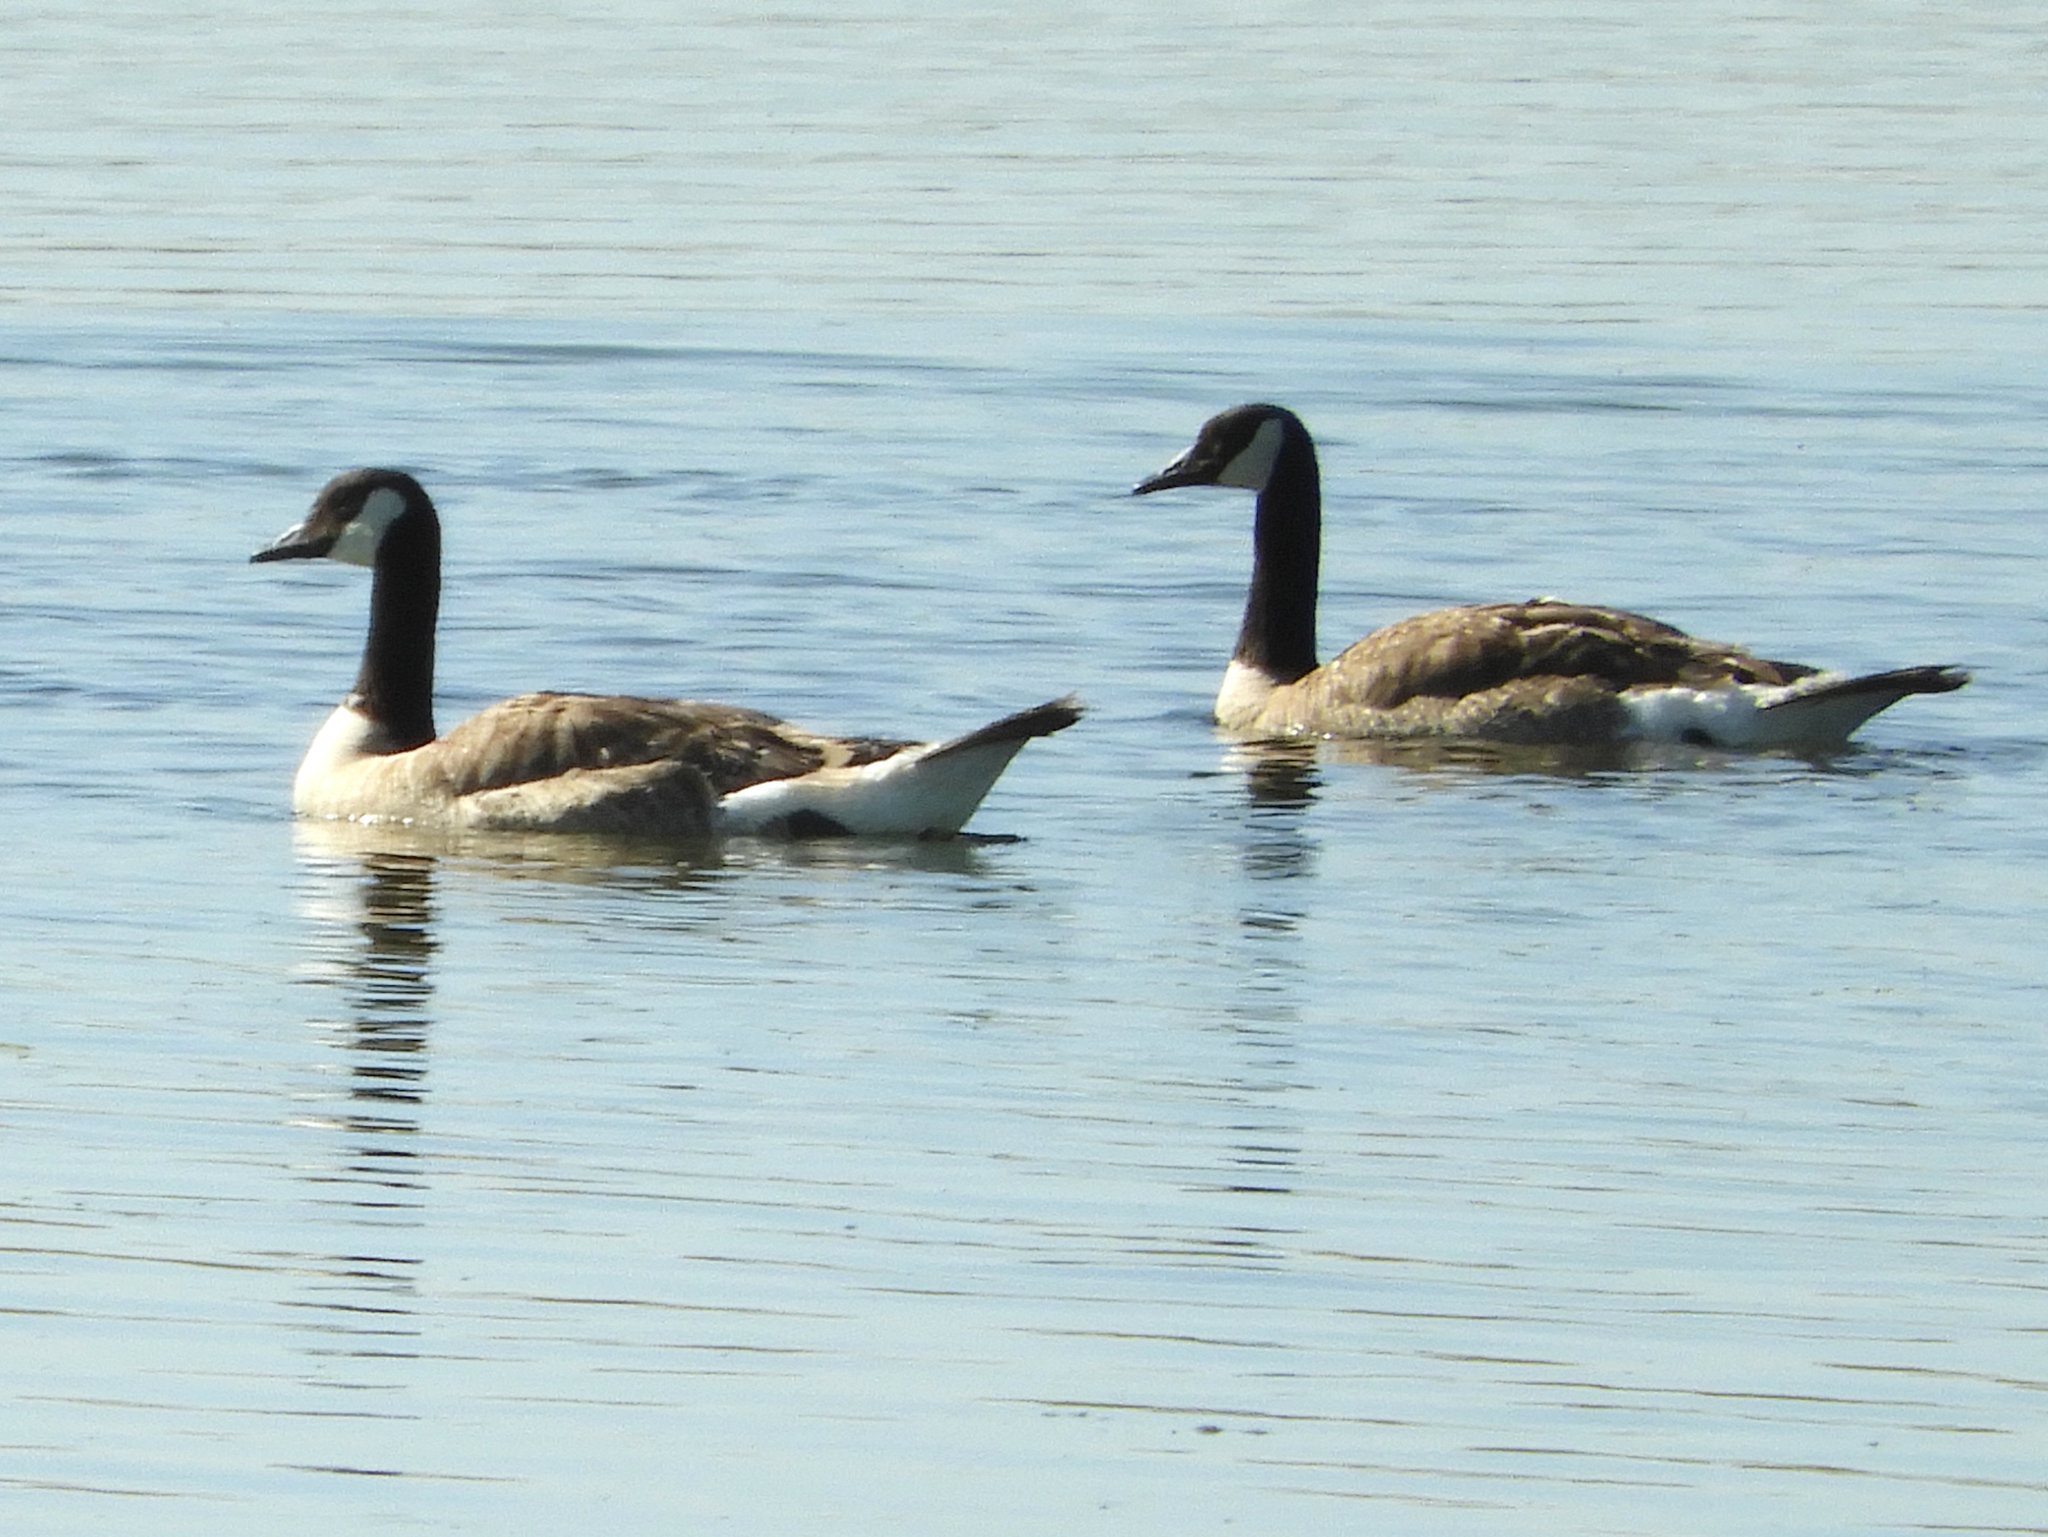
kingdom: Animalia
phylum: Chordata
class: Aves
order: Anseriformes
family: Anatidae
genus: Branta
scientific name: Branta canadensis
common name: Canada goose
